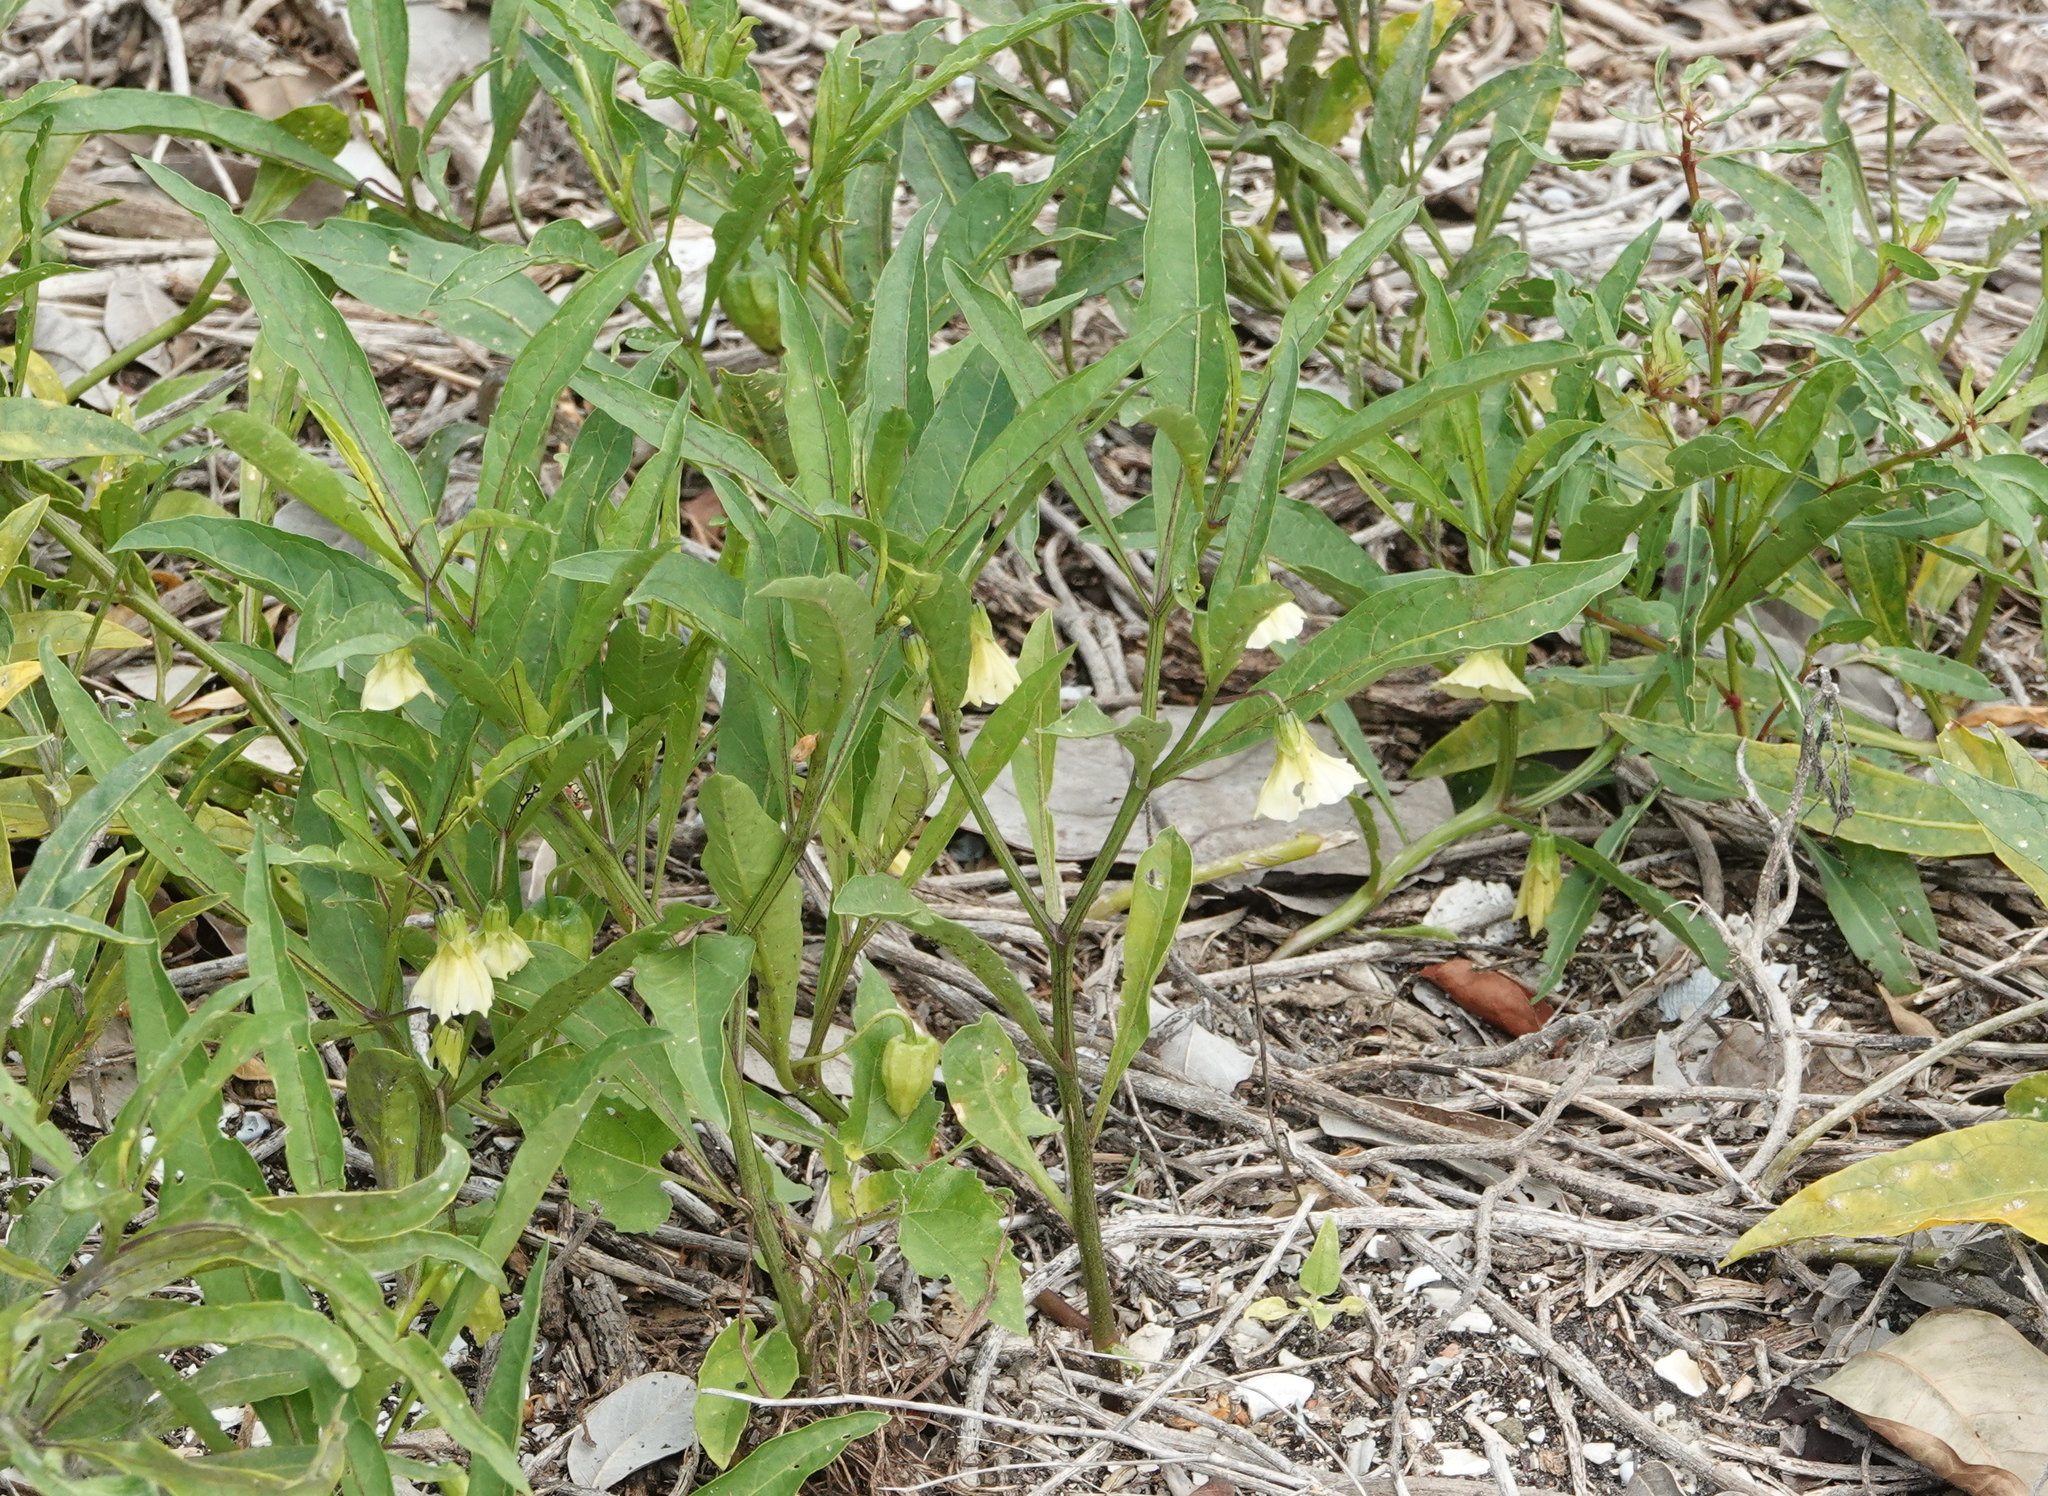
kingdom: Plantae
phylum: Tracheophyta
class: Magnoliopsida
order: Solanales
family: Solanaceae
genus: Physalis
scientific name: Physalis walteri
